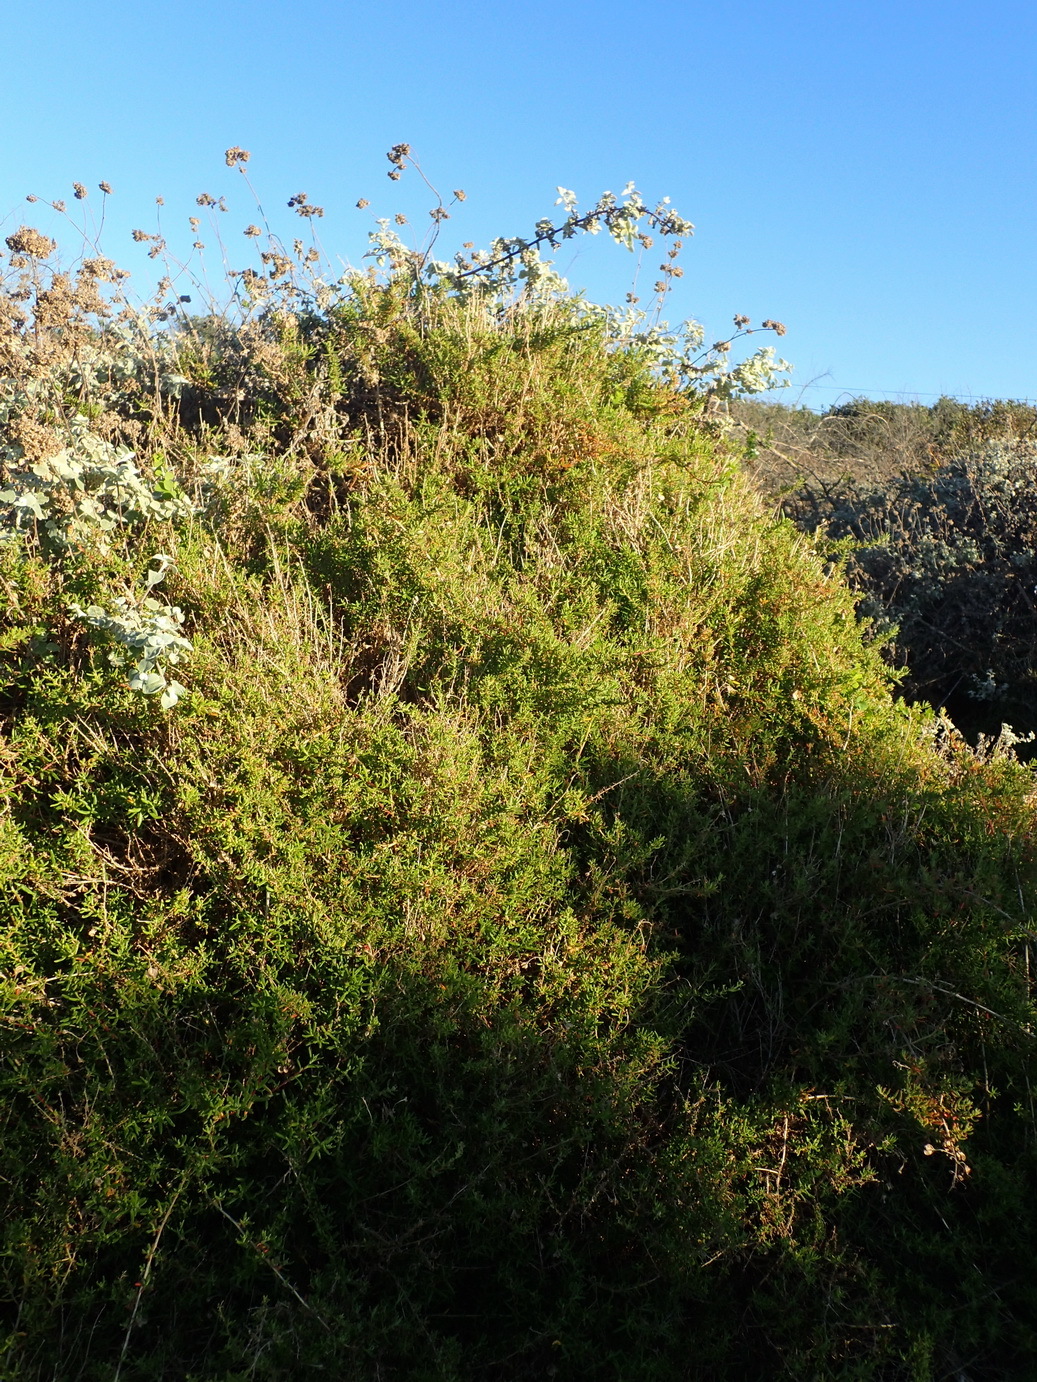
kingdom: Plantae
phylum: Tracheophyta
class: Magnoliopsida
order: Caryophyllales
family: Aizoaceae
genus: Tetragonia
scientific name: Tetragonia fruticosa
